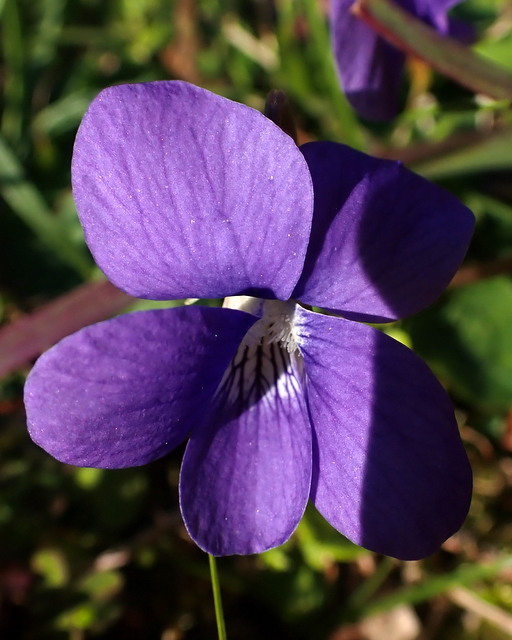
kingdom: Plantae
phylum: Tracheophyta
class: Magnoliopsida
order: Malpighiales
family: Violaceae
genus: Viola
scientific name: Viola sororia
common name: Dooryard violet
